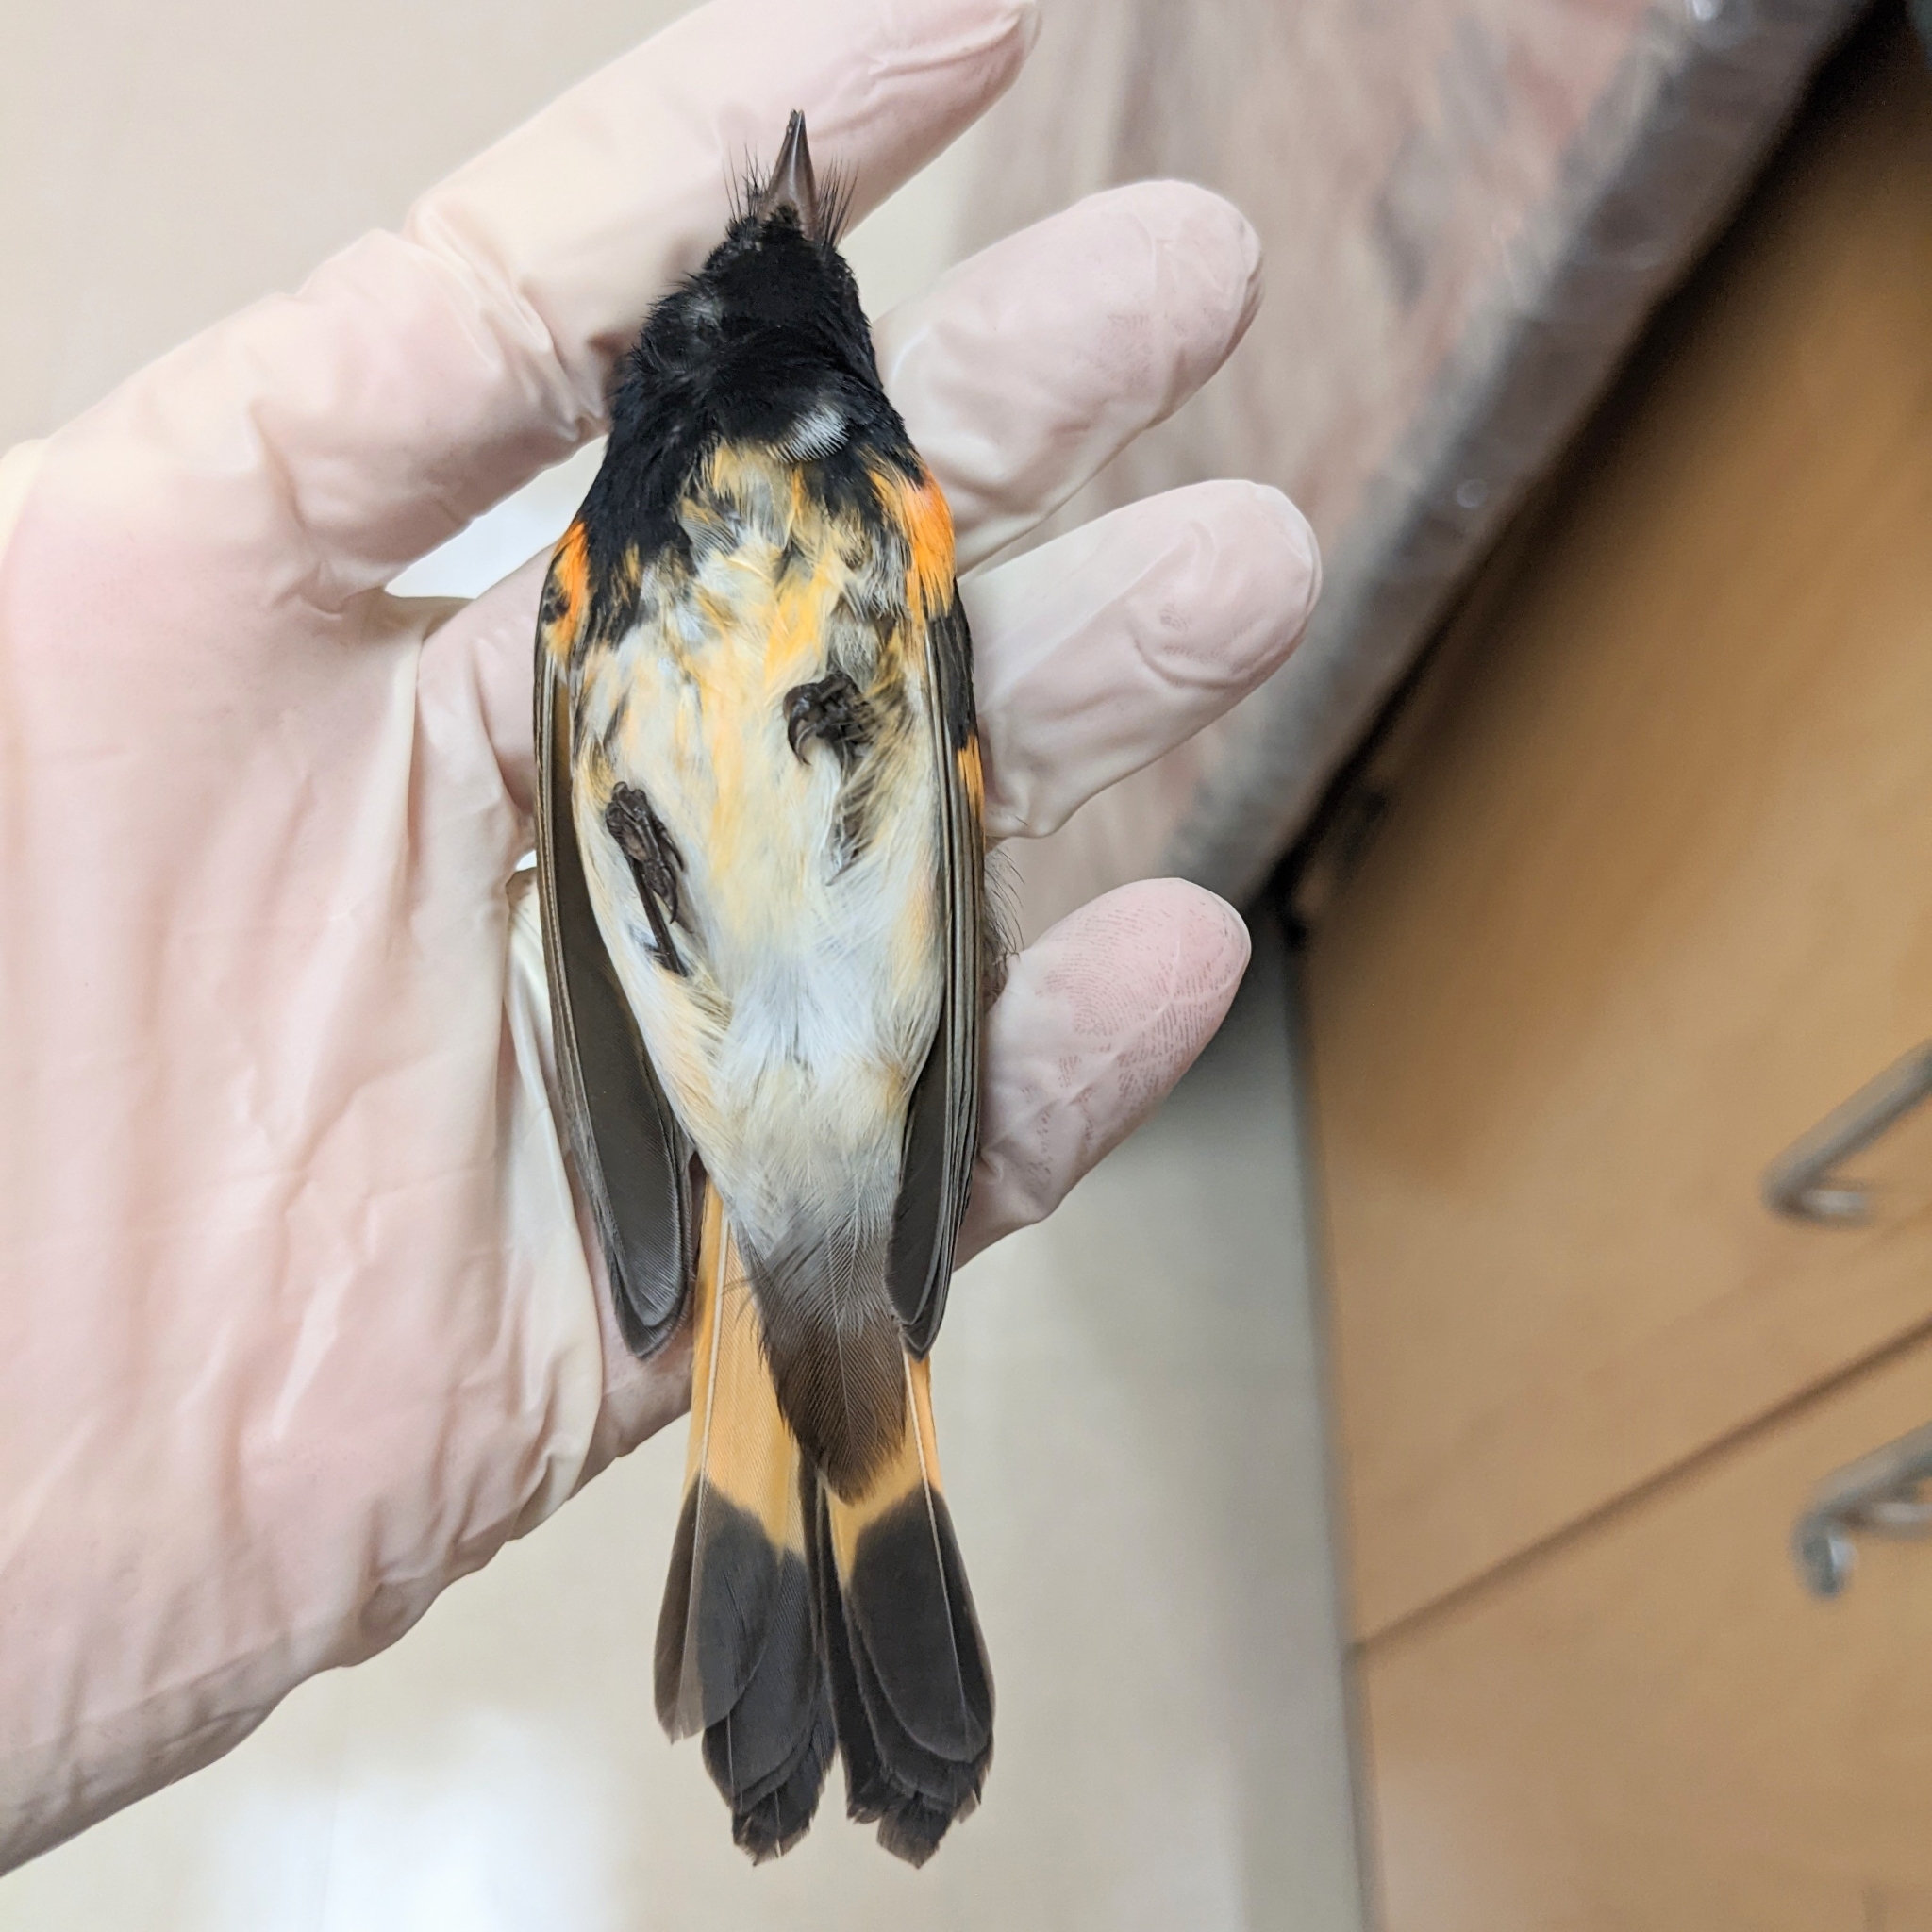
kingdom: Animalia
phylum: Chordata
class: Aves
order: Passeriformes
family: Parulidae
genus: Setophaga
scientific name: Setophaga ruticilla
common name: American redstart
